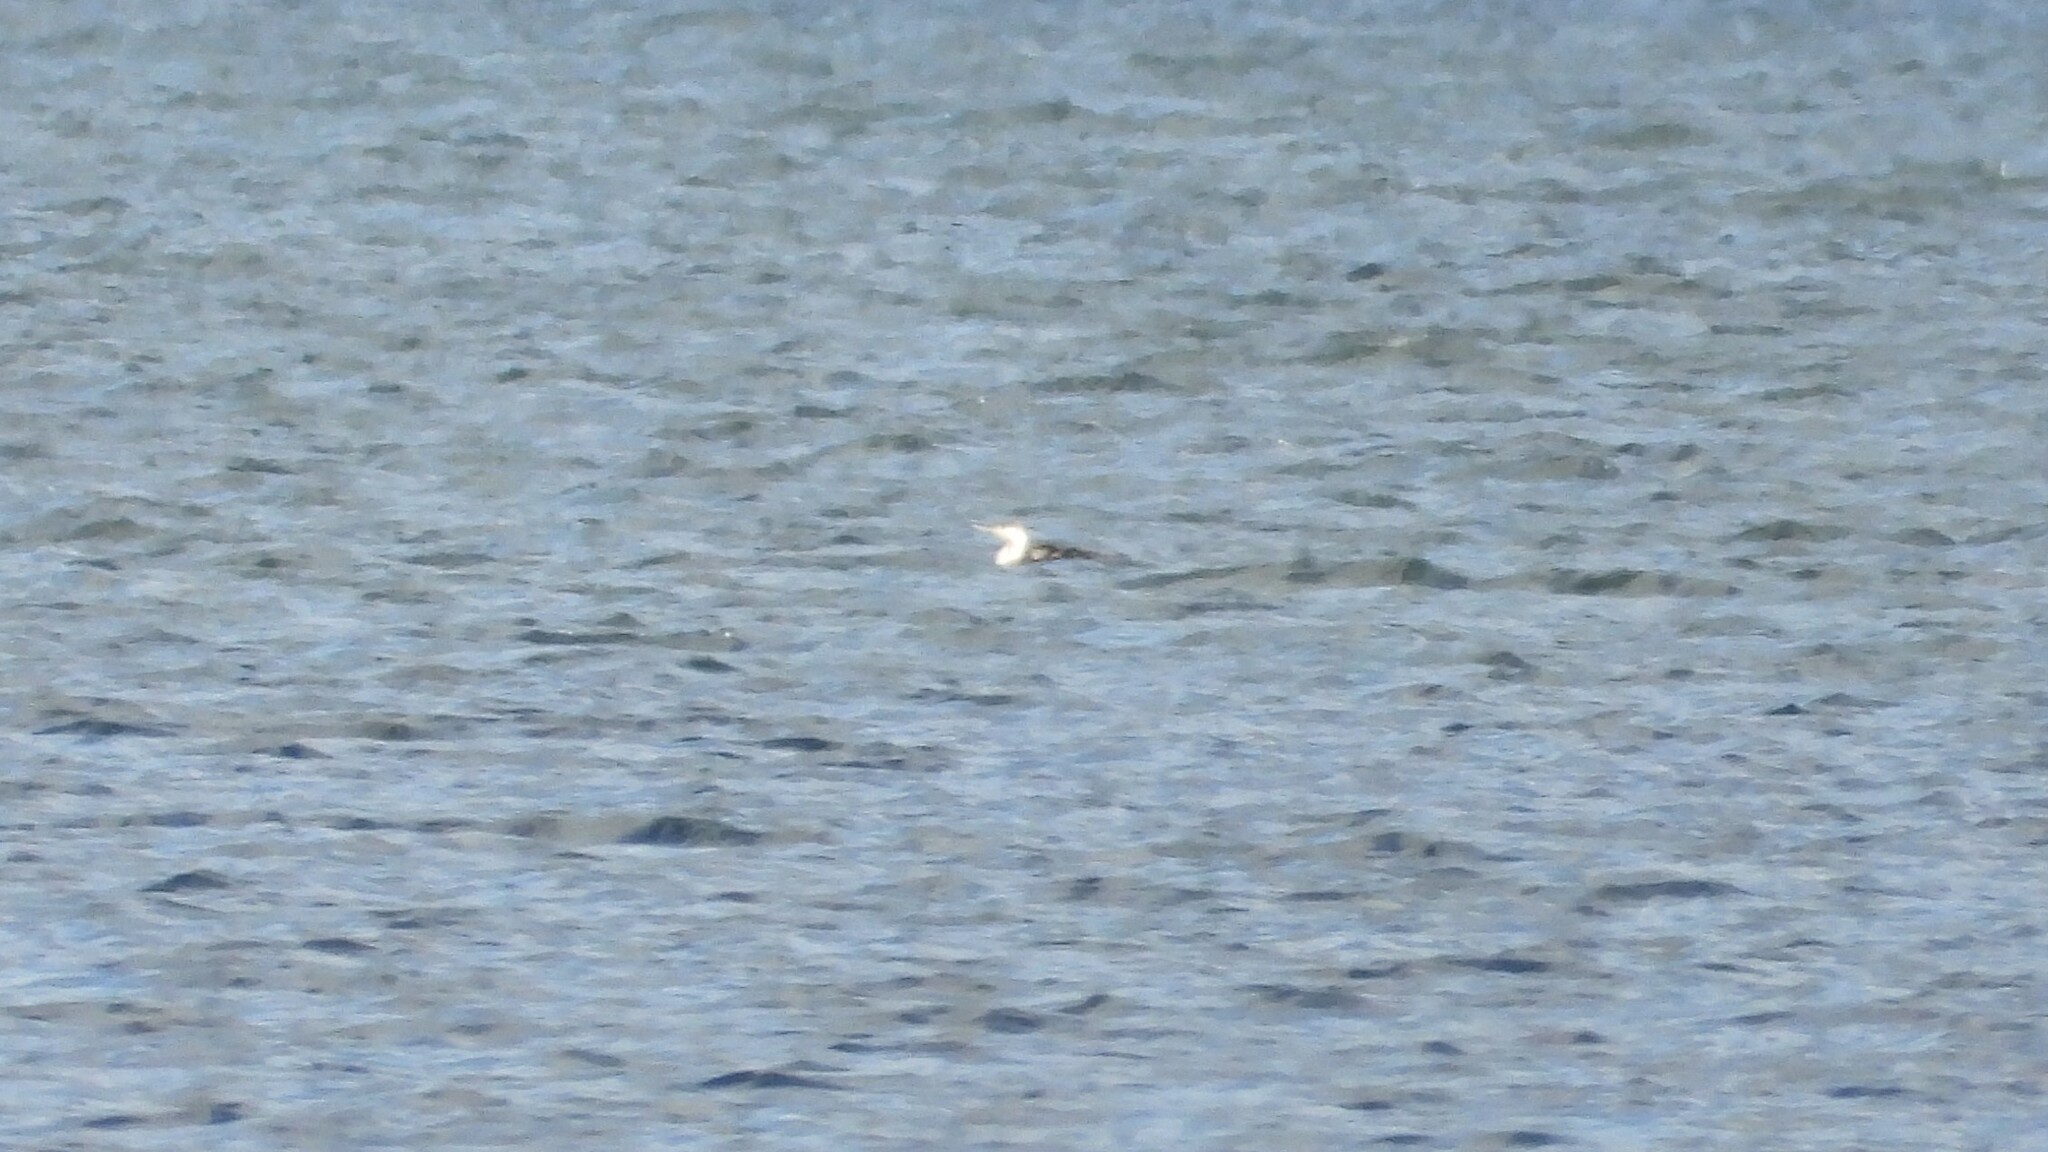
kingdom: Animalia
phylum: Chordata
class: Aves
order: Gaviiformes
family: Gaviidae
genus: Gavia
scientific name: Gavia stellata
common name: Red-throated loon
